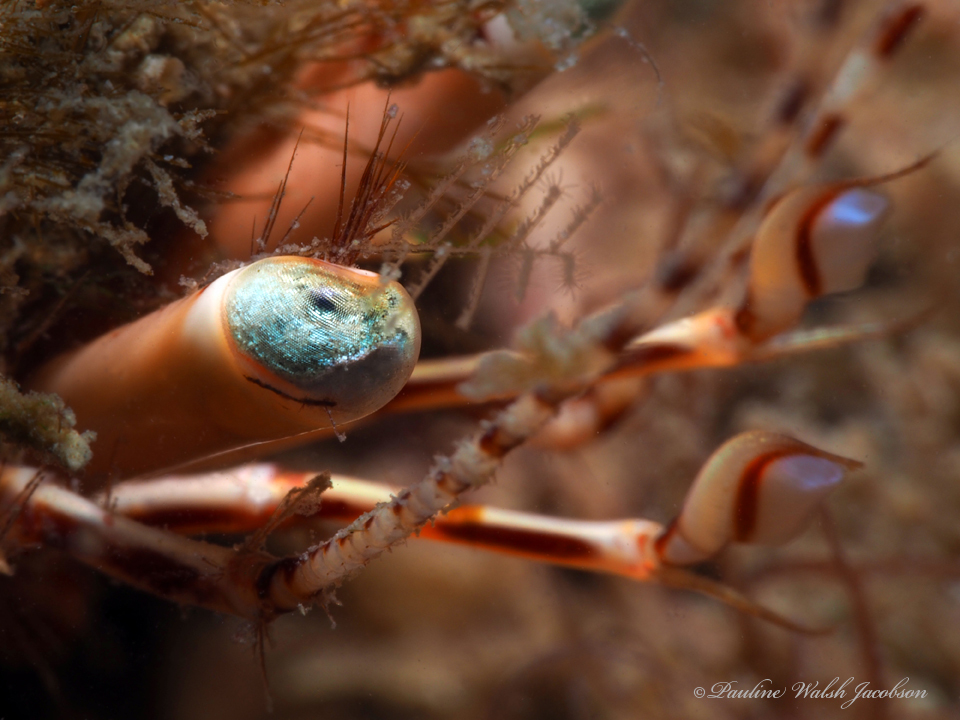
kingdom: Animalia
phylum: Arthropoda
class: Malacostraca
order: Decapoda
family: Diogenidae
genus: Petrochirus
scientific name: Petrochirus diogenes
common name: Giant hermit crab
